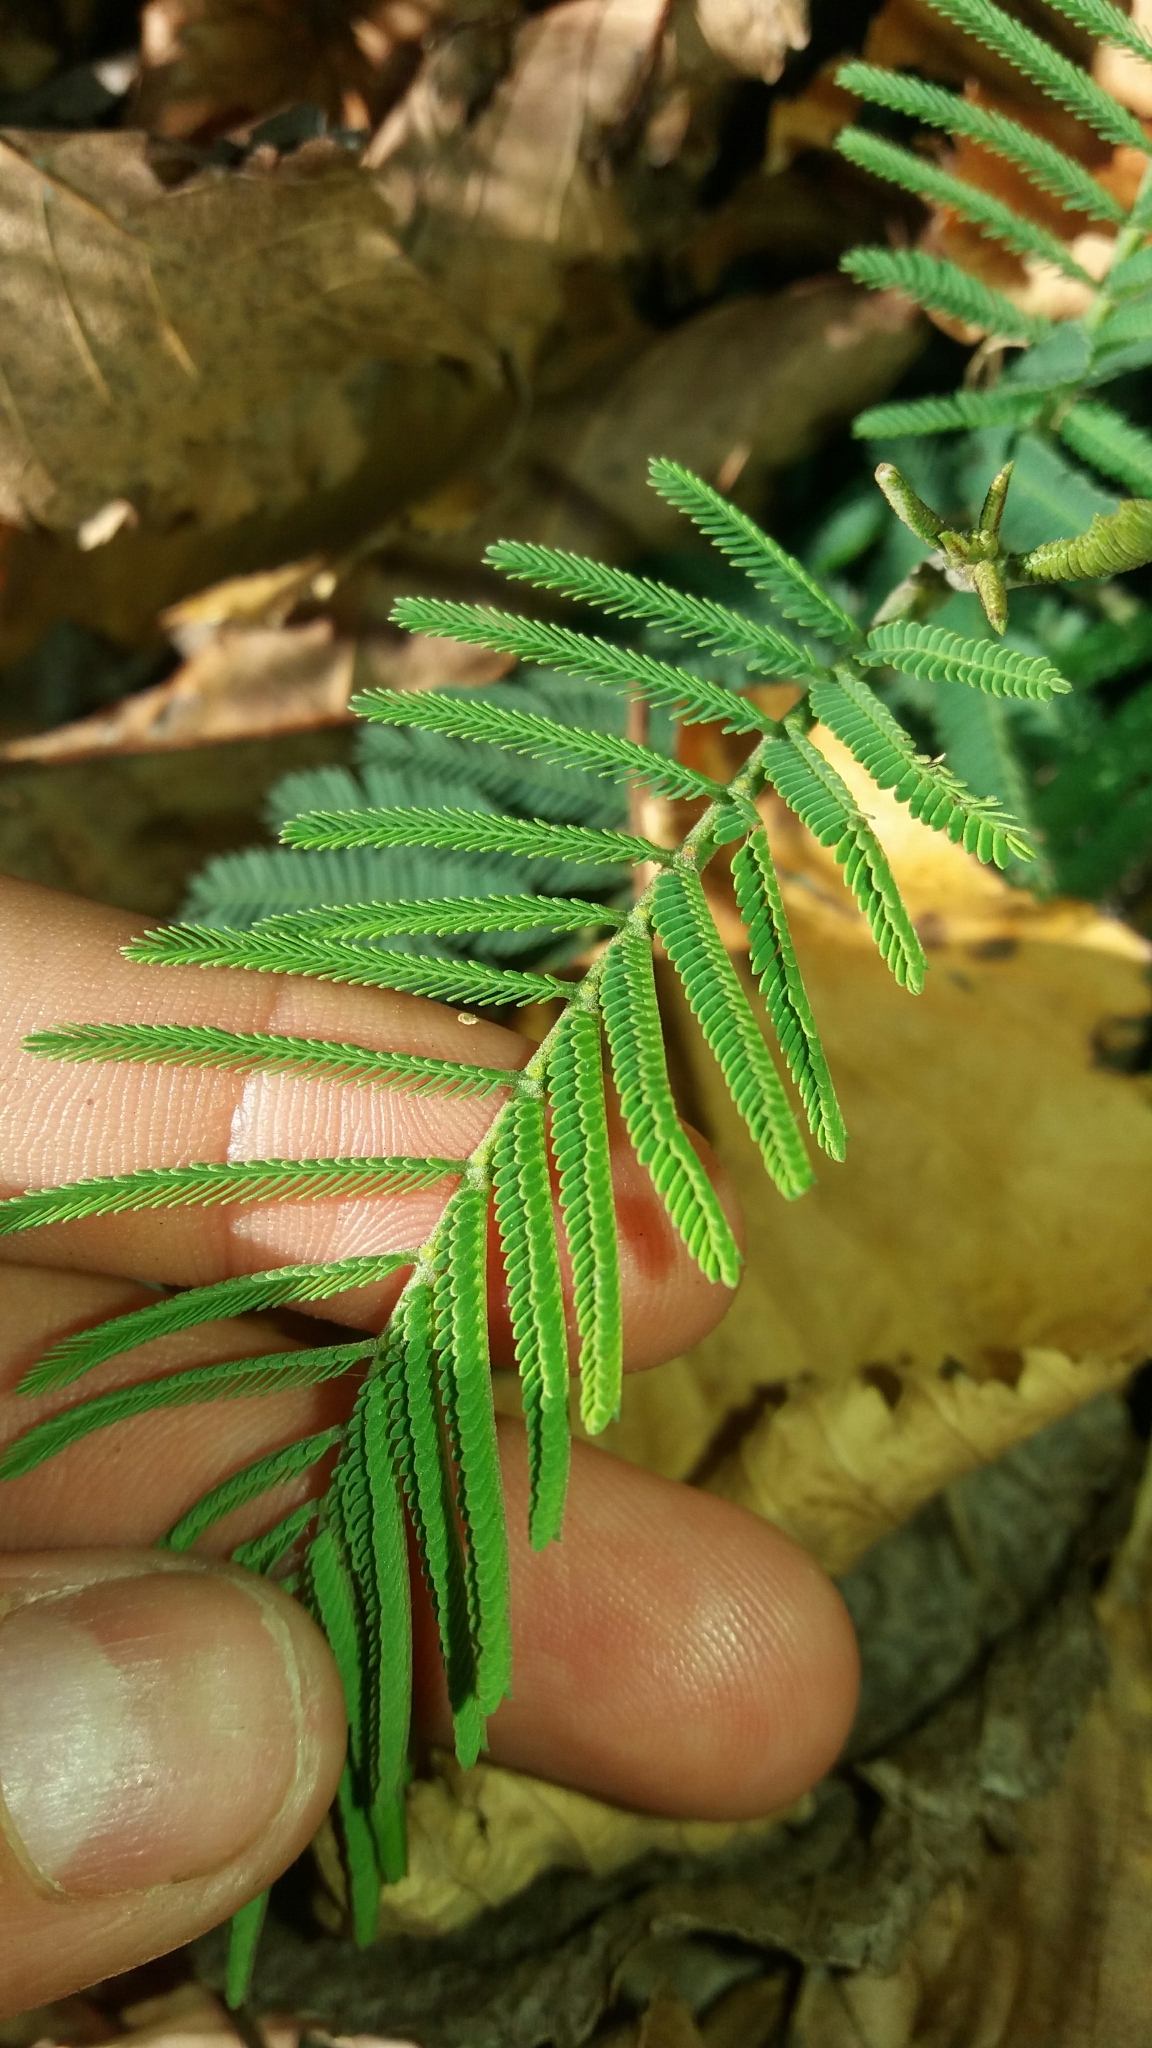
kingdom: Plantae
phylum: Tracheophyta
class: Magnoliopsida
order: Fabales
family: Fabaceae
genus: Acacia
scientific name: Acacia dealbata
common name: Silver wattle
